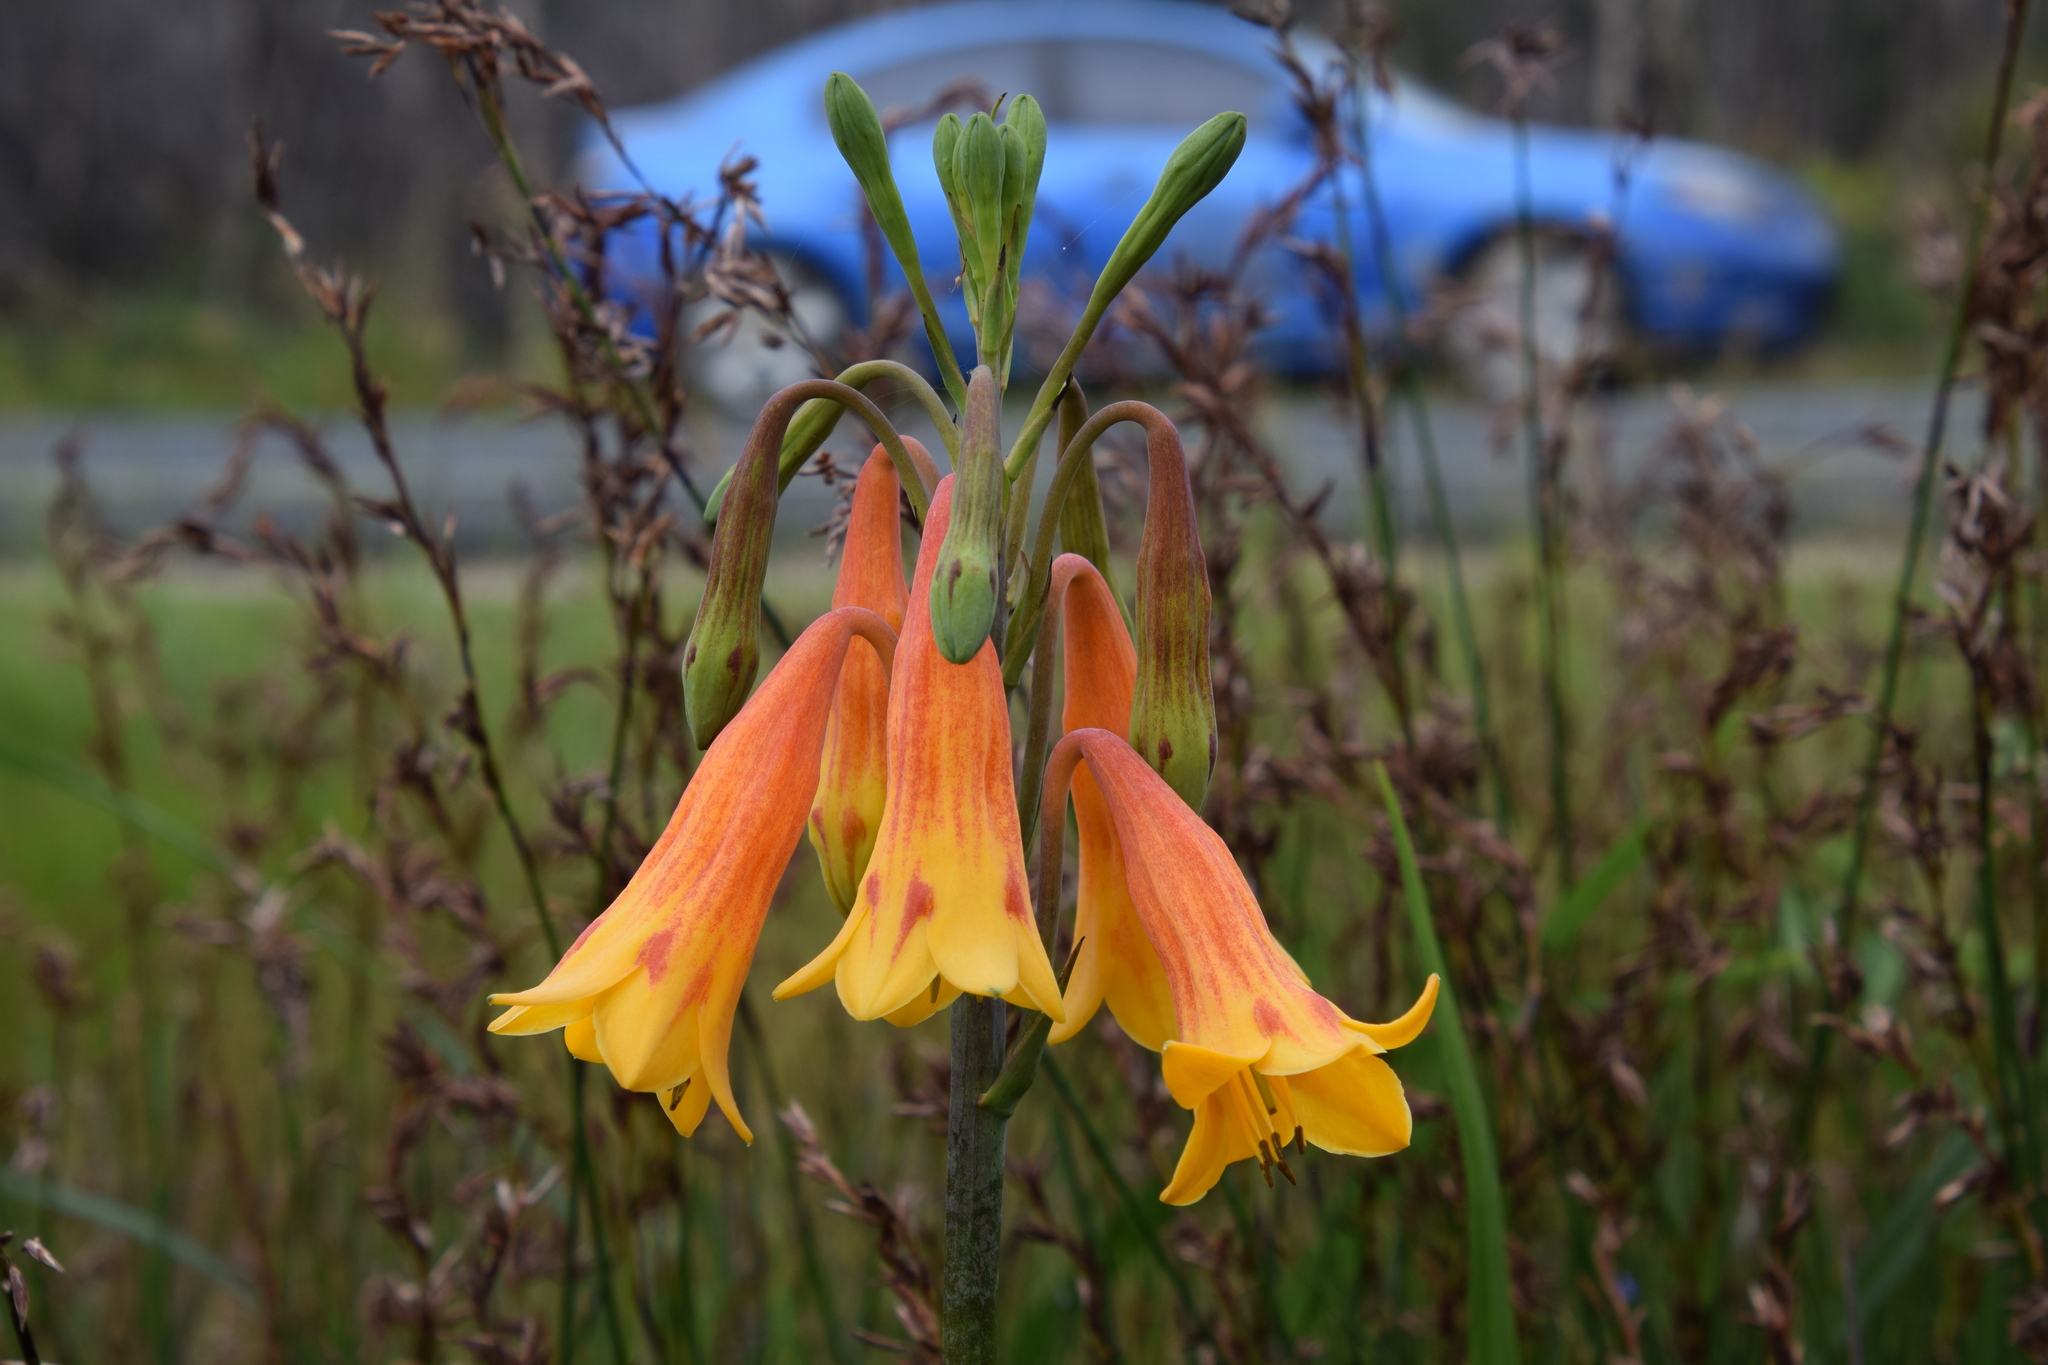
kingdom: Plantae
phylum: Tracheophyta
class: Liliopsida
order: Asparagales
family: Blandfordiaceae
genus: Blandfordia
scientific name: Blandfordia grandiflora
